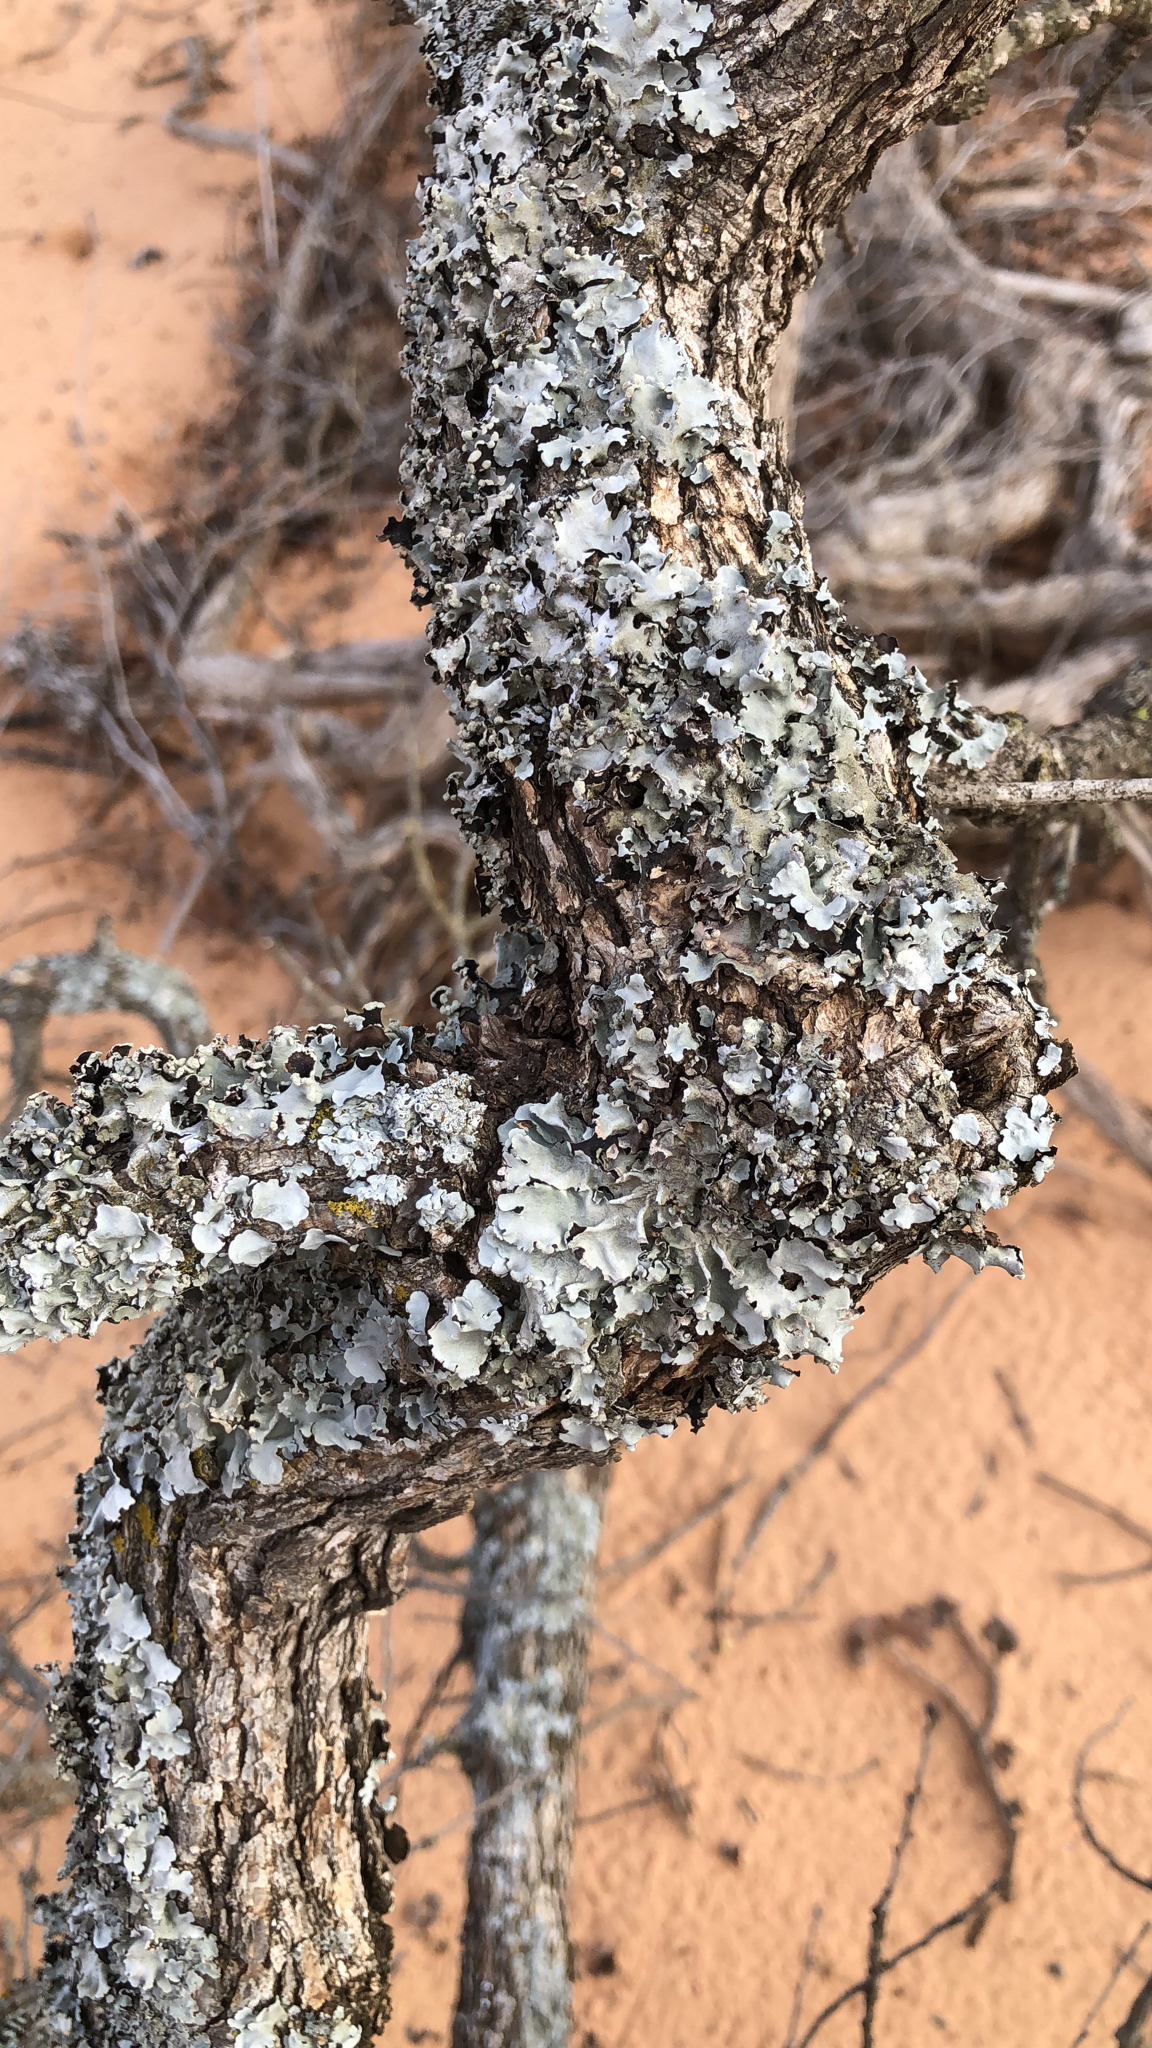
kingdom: Fungi
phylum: Ascomycota
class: Lecanoromycetes
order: Lecanorales
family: Parmeliaceae
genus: Parmotrema
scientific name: Parmotrema reticulatum
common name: Black sheet lichen
